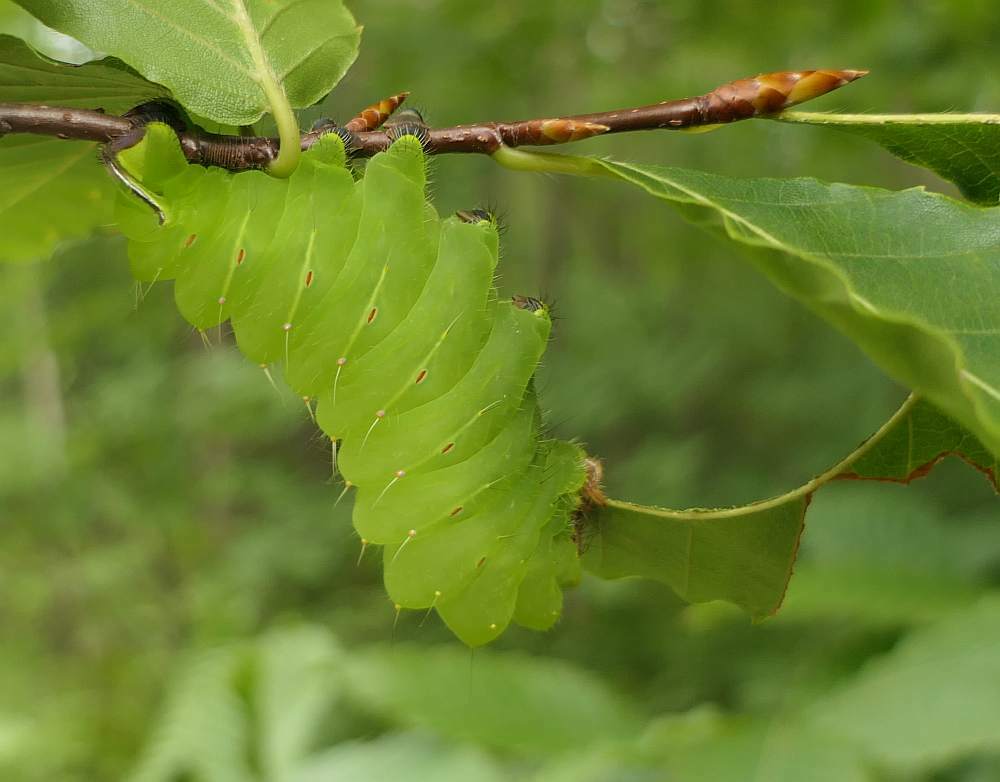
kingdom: Animalia
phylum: Arthropoda
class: Insecta
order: Lepidoptera
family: Saturniidae
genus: Antheraea
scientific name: Antheraea polyphemus
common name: Polyphemus moth
